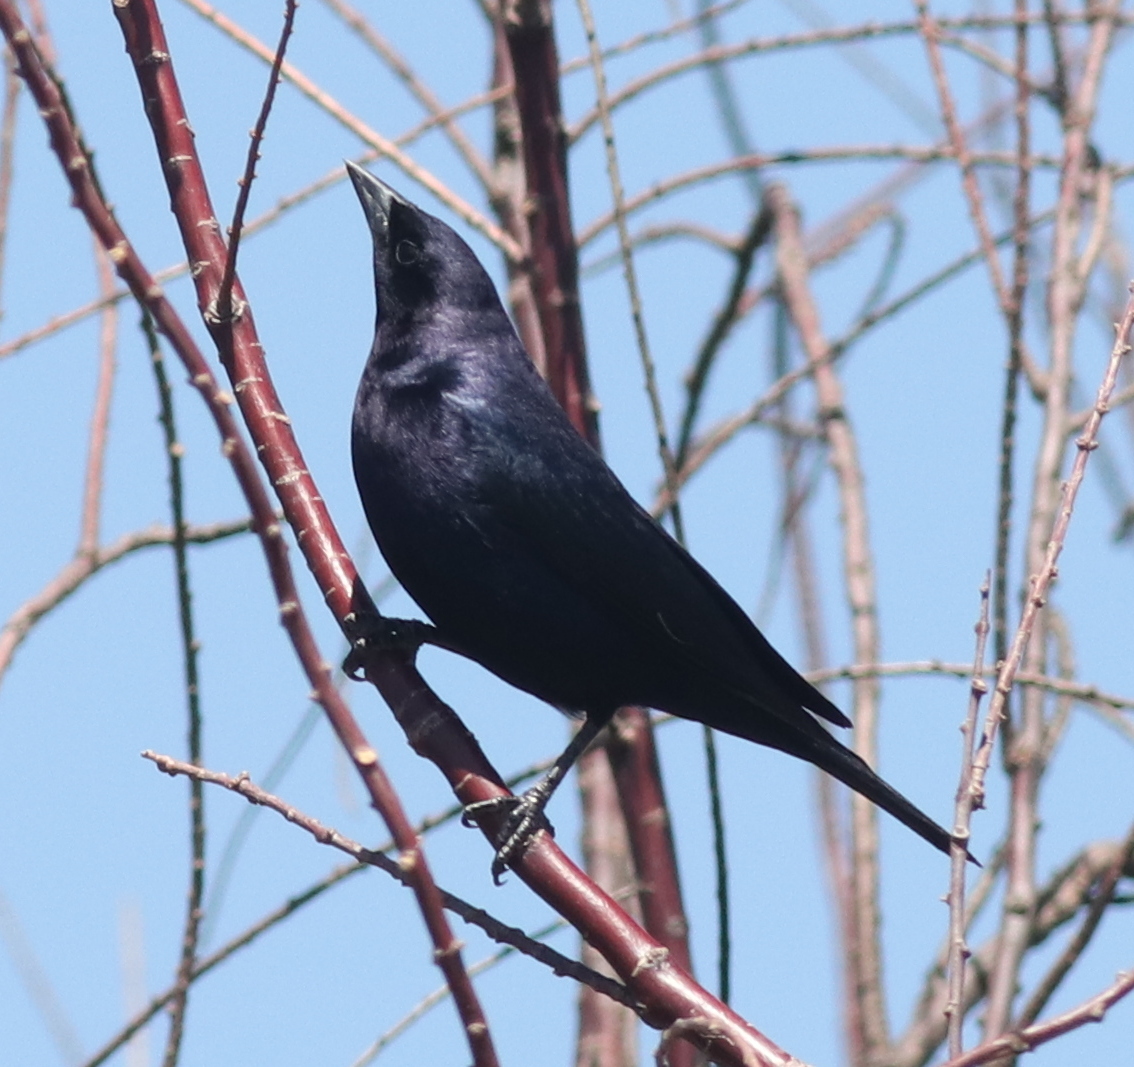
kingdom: Animalia
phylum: Chordata
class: Aves
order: Passeriformes
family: Icteridae
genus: Molothrus
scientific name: Molothrus bonariensis
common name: Shiny cowbird
